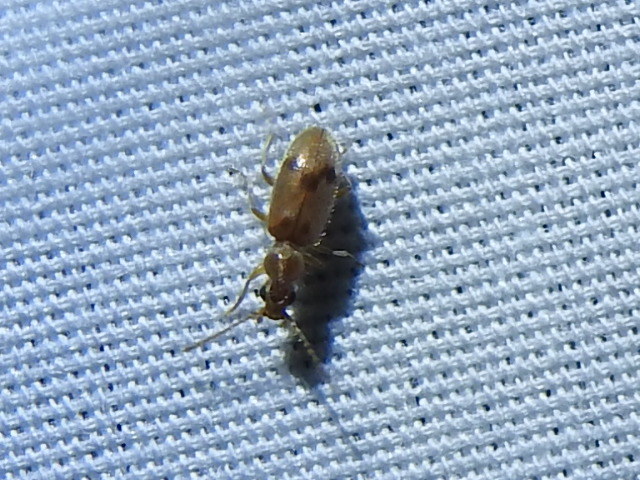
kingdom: Animalia
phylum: Arthropoda
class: Insecta
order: Coleoptera
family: Anthicidae
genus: Notoxus
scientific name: Notoxus monodon
